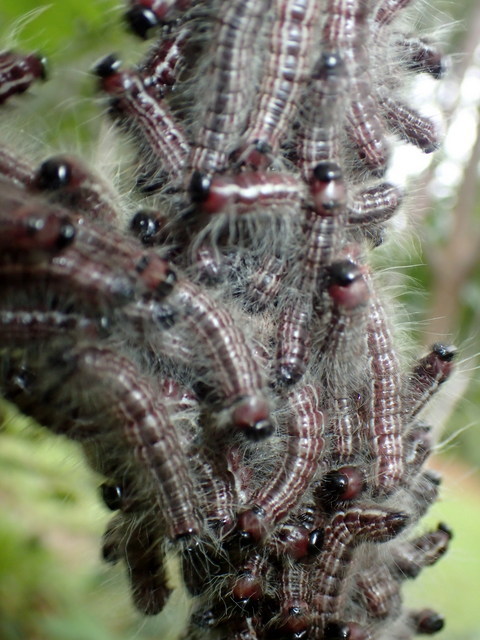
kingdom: Animalia
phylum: Arthropoda
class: Insecta
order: Lepidoptera
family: Notodontidae
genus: Datana
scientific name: Datana integerrima
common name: Walnut caterpillar
